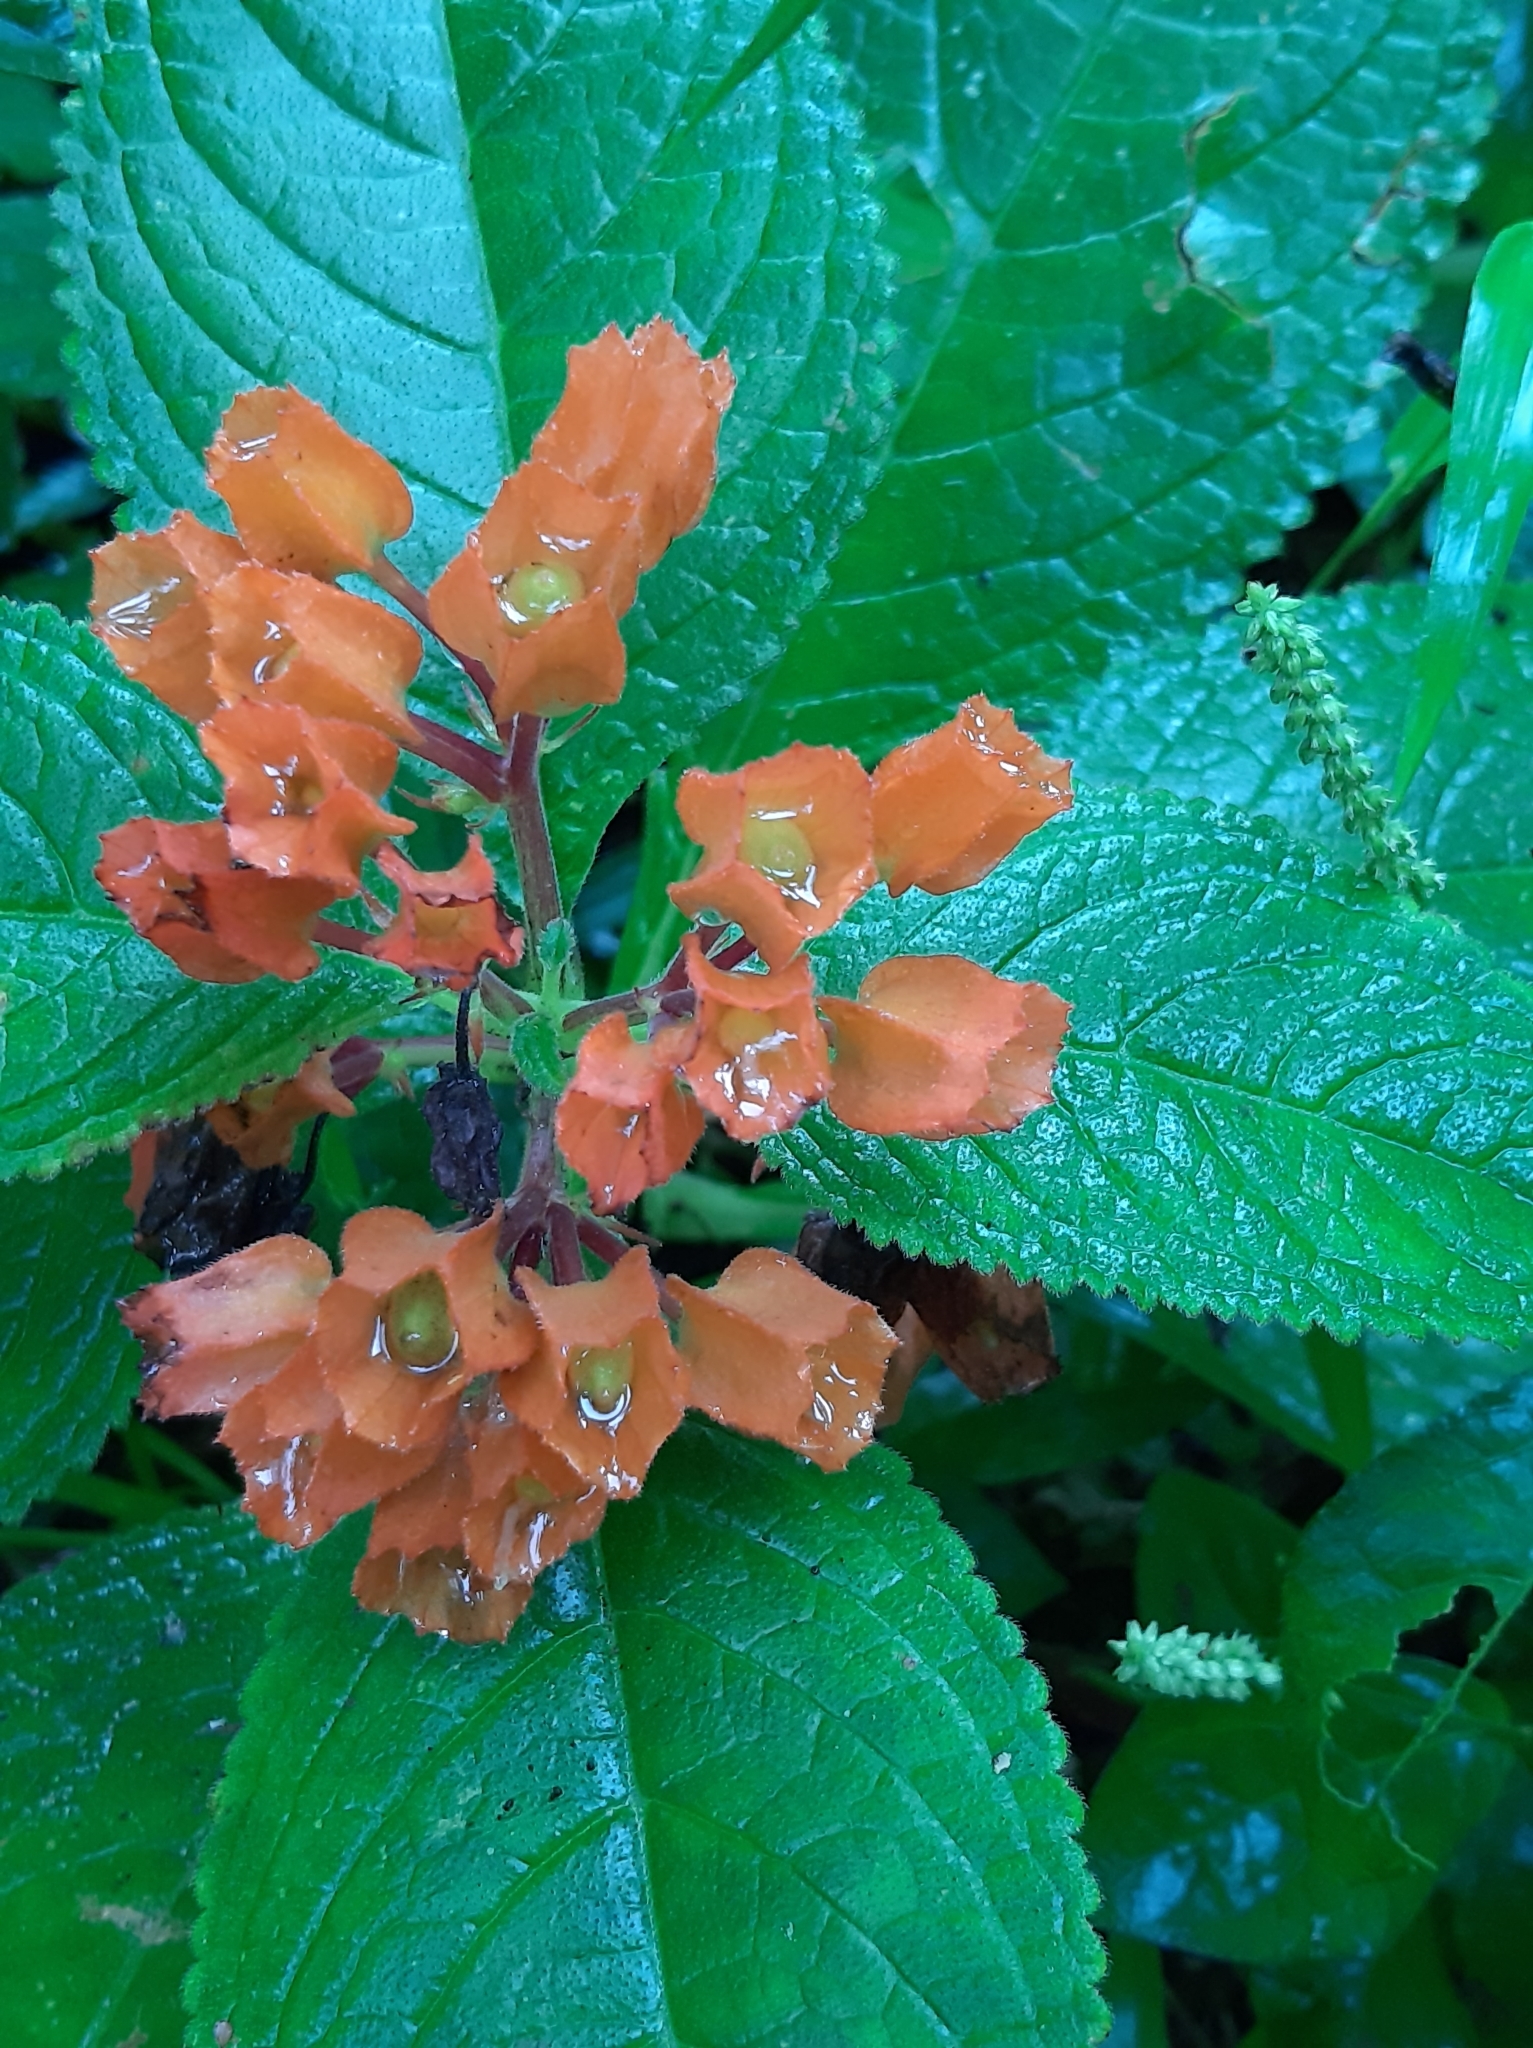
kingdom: Plantae
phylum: Tracheophyta
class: Magnoliopsida
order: Lamiales
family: Gesneriaceae
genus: Chrysothemis
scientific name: Chrysothemis pulchella
